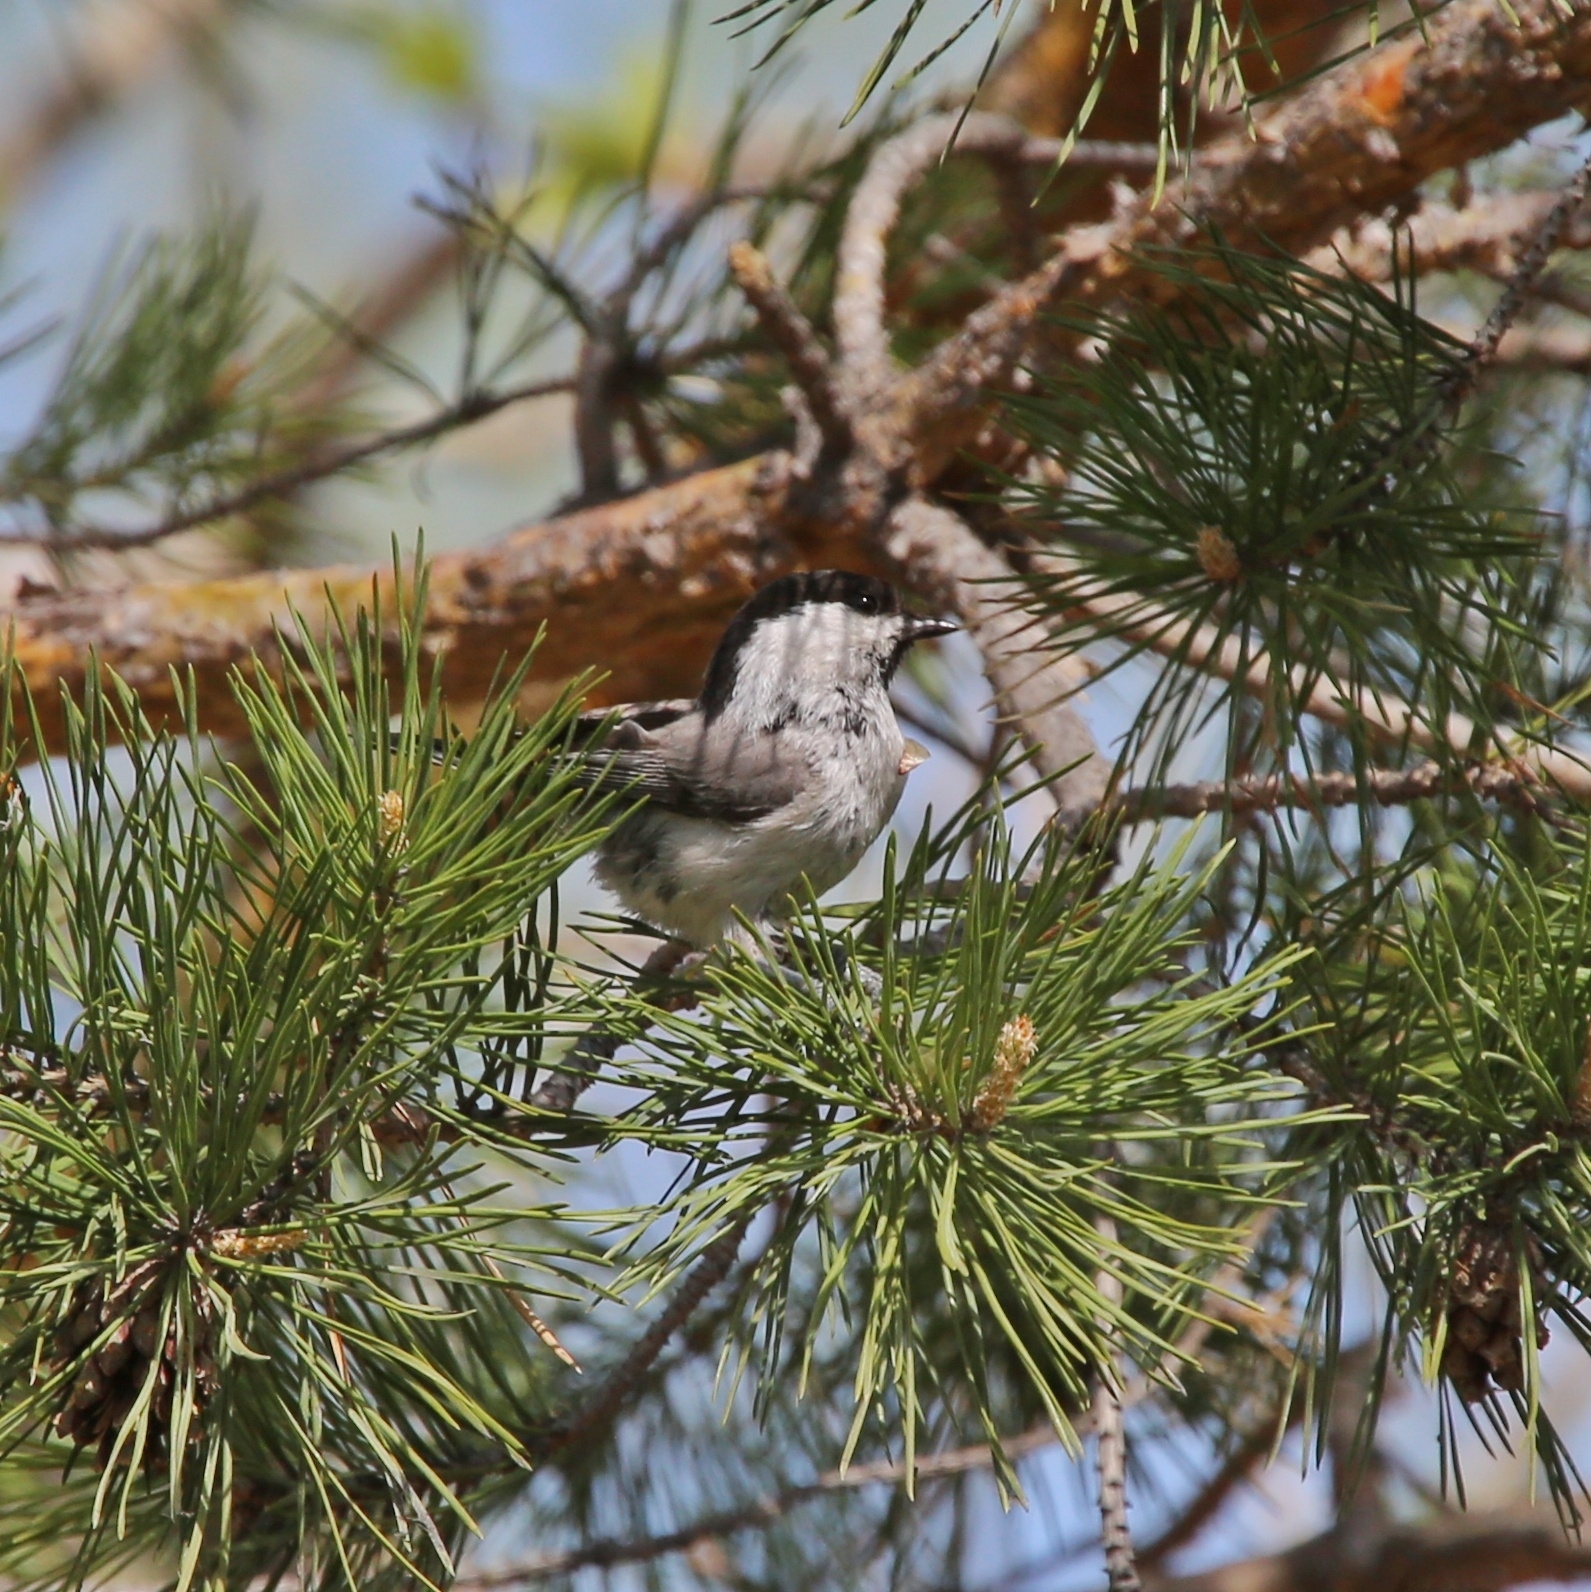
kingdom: Animalia
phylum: Chordata
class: Aves
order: Passeriformes
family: Paridae
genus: Poecile
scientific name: Poecile montanus
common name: Willow tit
